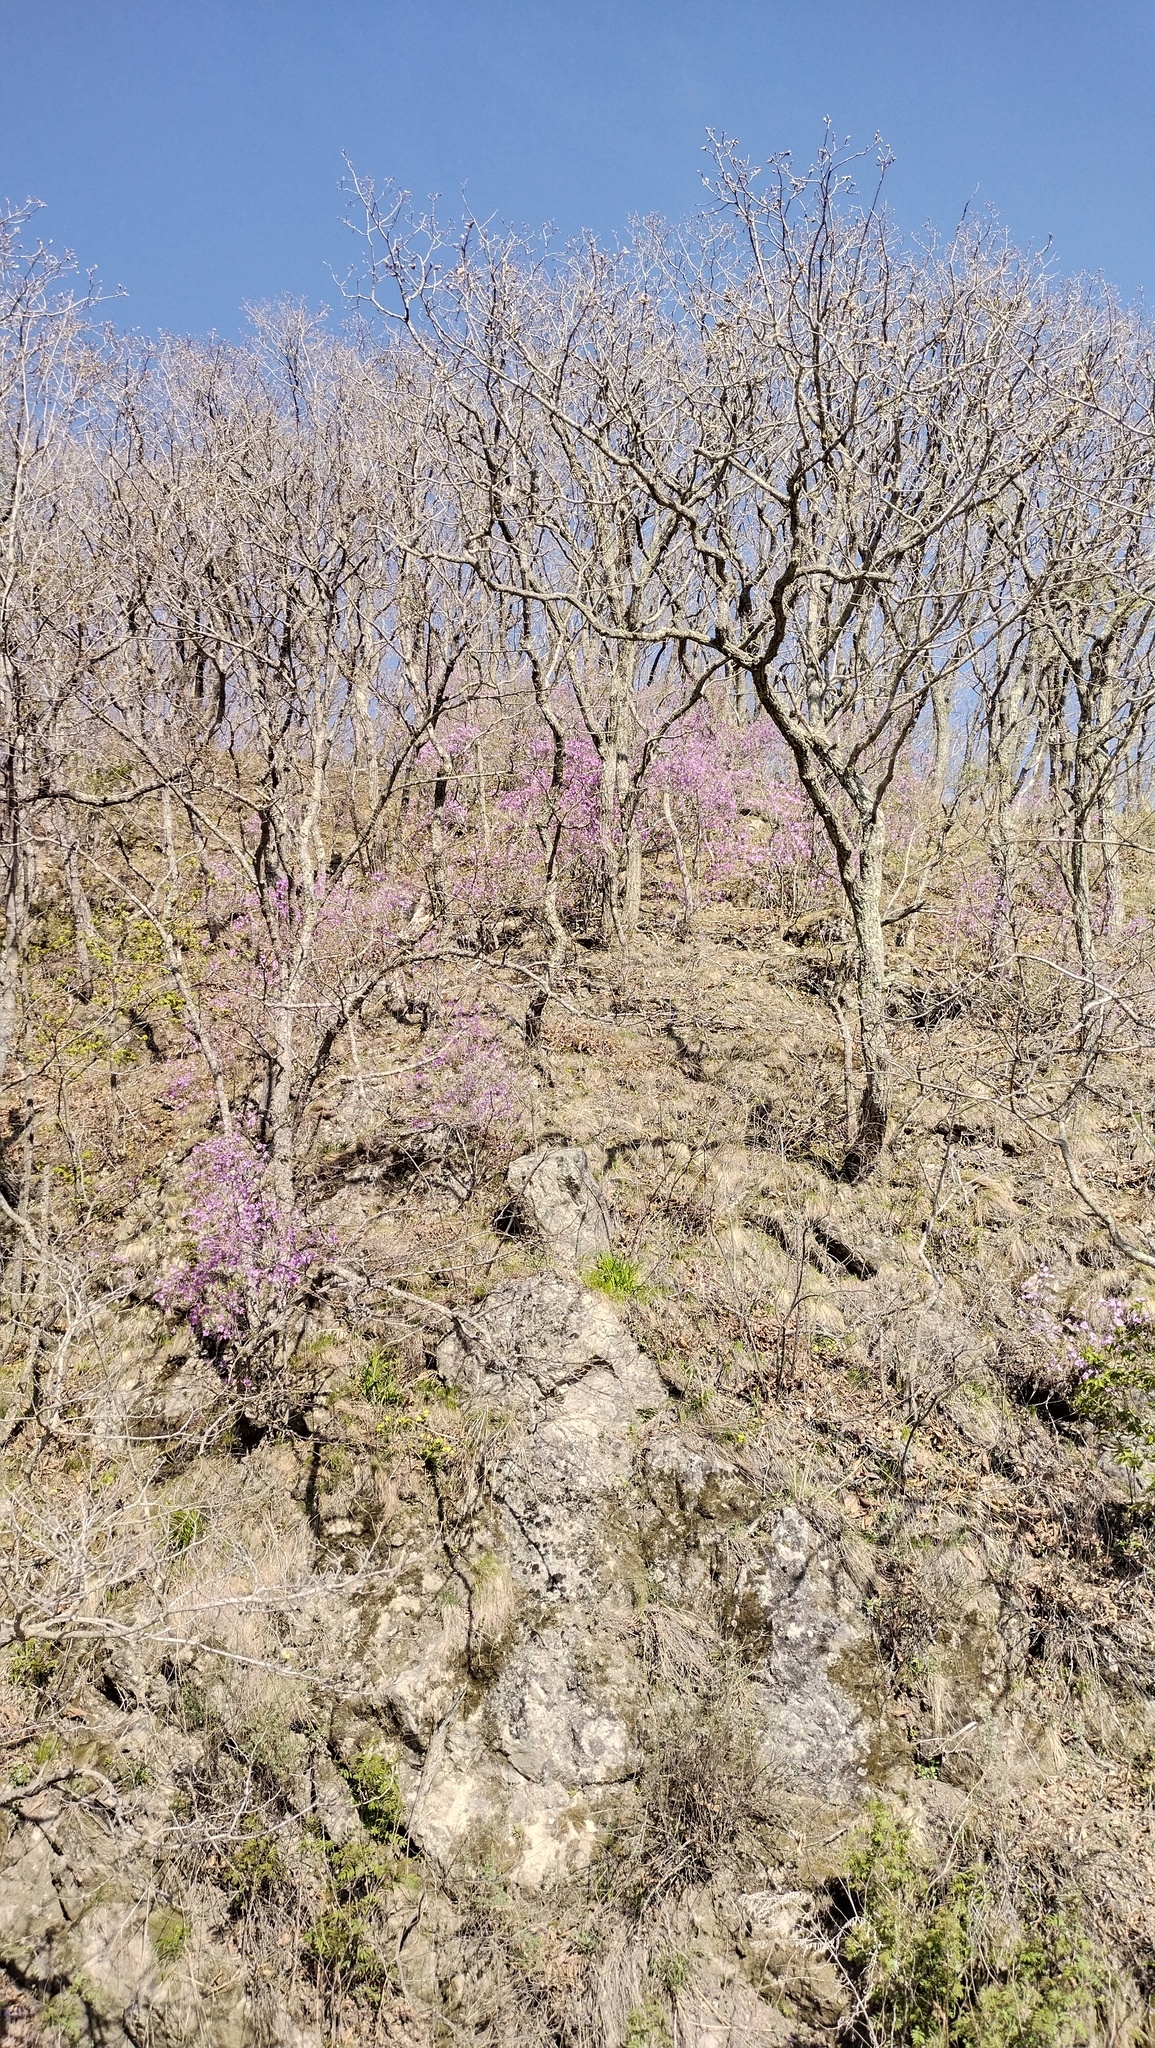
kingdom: Plantae
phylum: Tracheophyta
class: Magnoliopsida
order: Fagales
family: Fagaceae
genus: Quercus
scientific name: Quercus mongolica
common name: Mongolian oak
